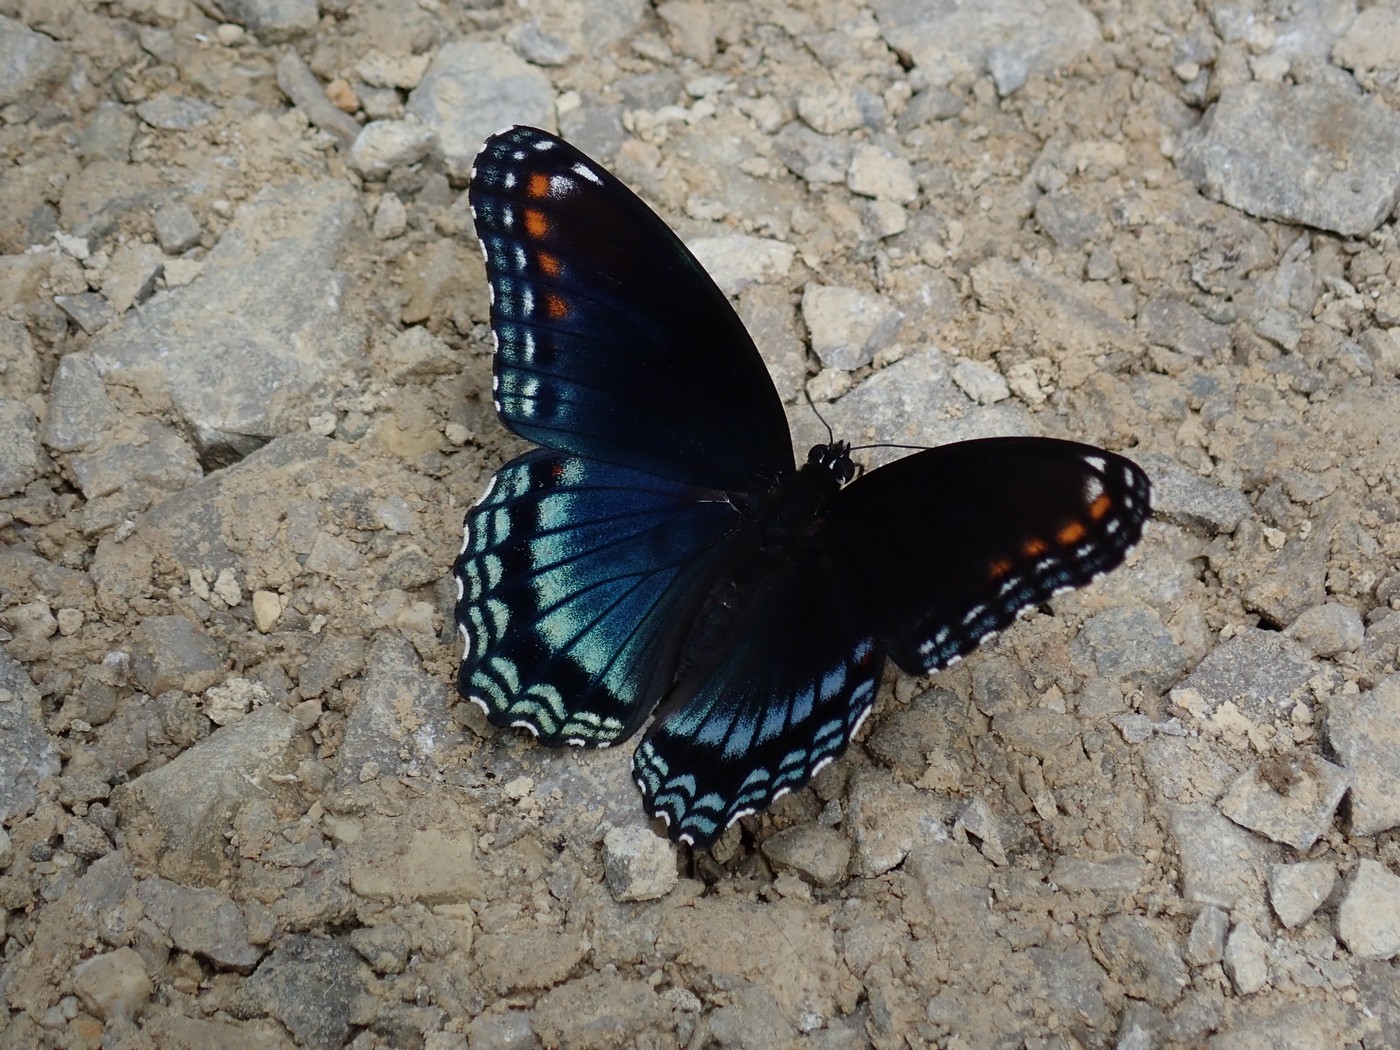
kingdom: Animalia
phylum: Arthropoda
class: Insecta
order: Lepidoptera
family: Nymphalidae
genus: Limenitis
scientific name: Limenitis astyanax
